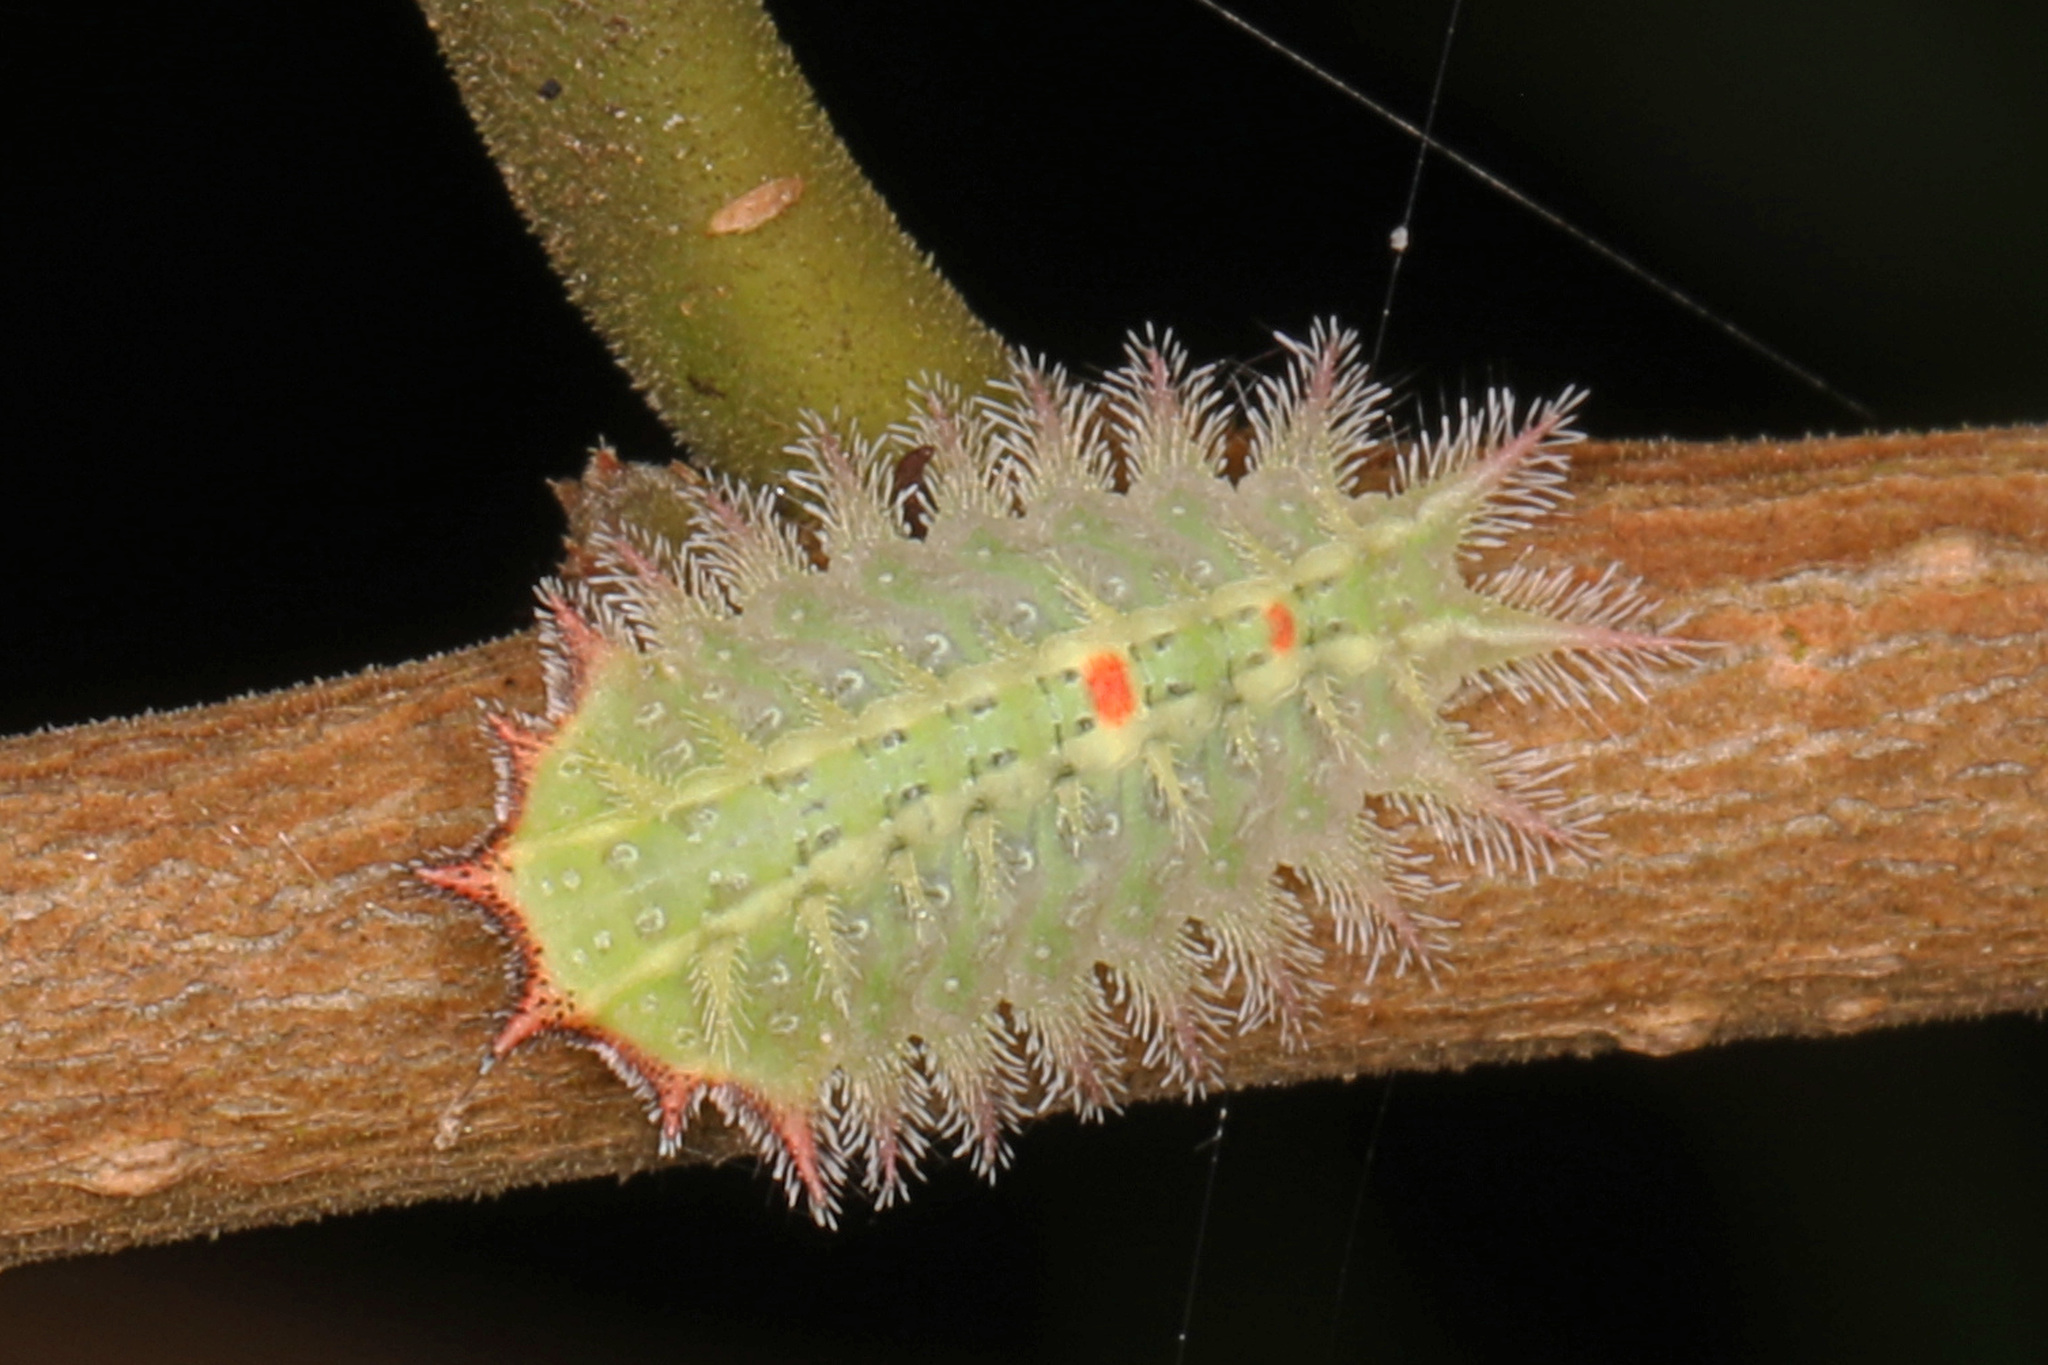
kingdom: Animalia
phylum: Arthropoda
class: Insecta
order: Lepidoptera
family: Limacodidae
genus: Isa
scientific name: Isa textula
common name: Crowned slug moth
